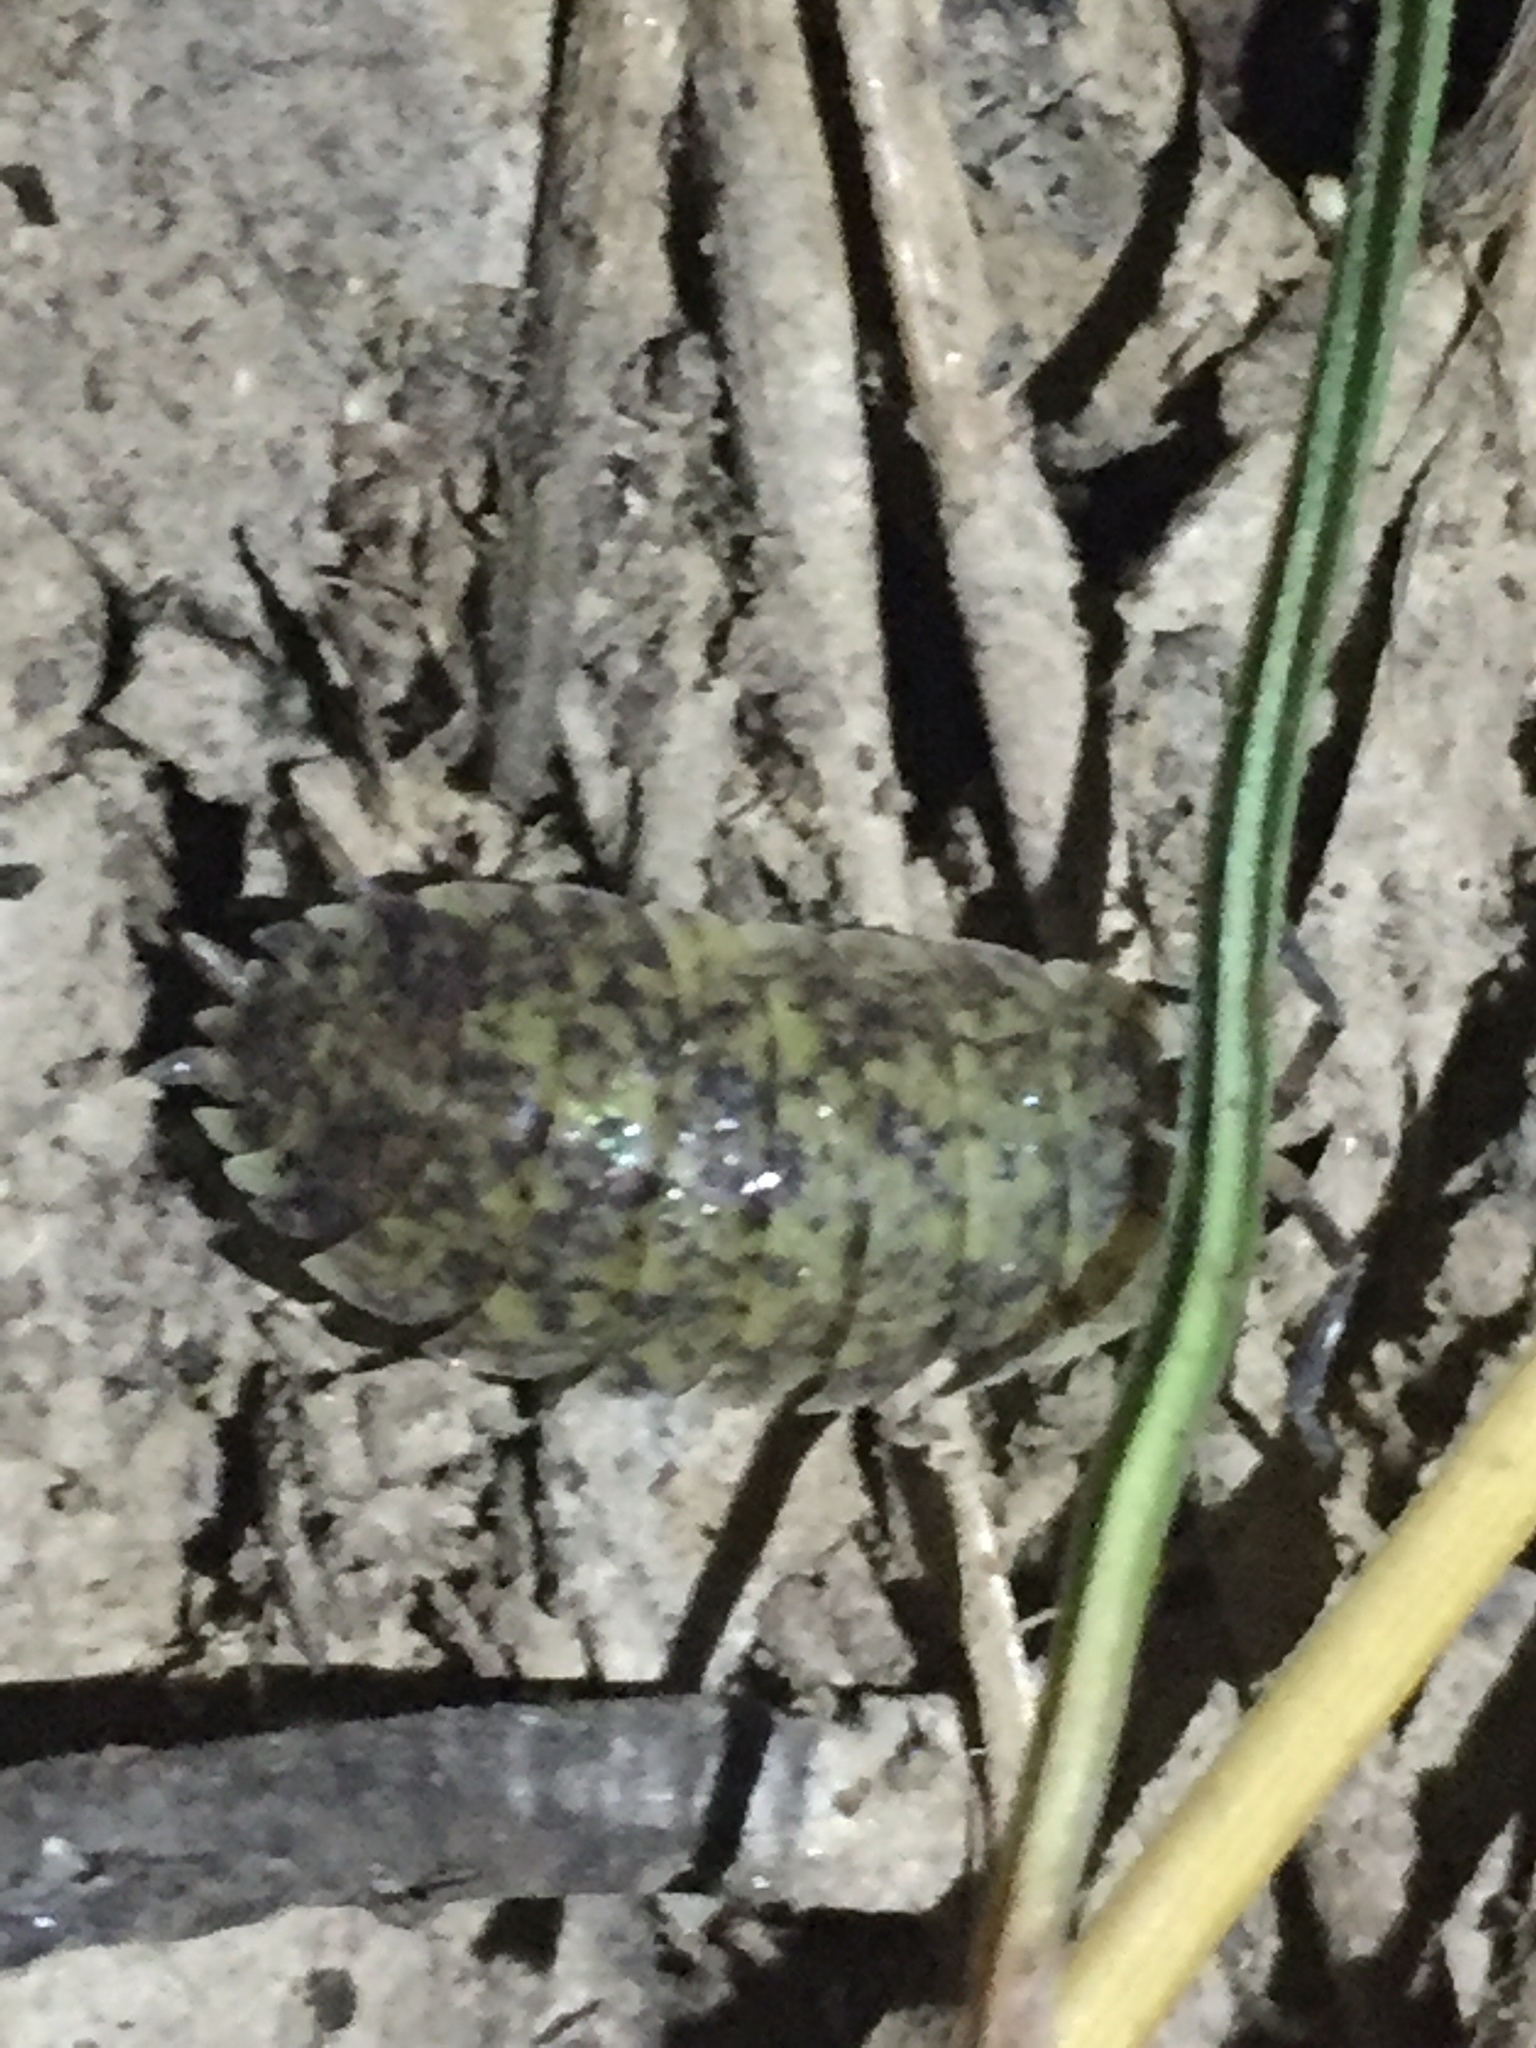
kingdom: Animalia
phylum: Arthropoda
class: Malacostraca
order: Isopoda
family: Porcellionidae
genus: Porcellio
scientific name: Porcellio scaber
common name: Common rough woodlouse
